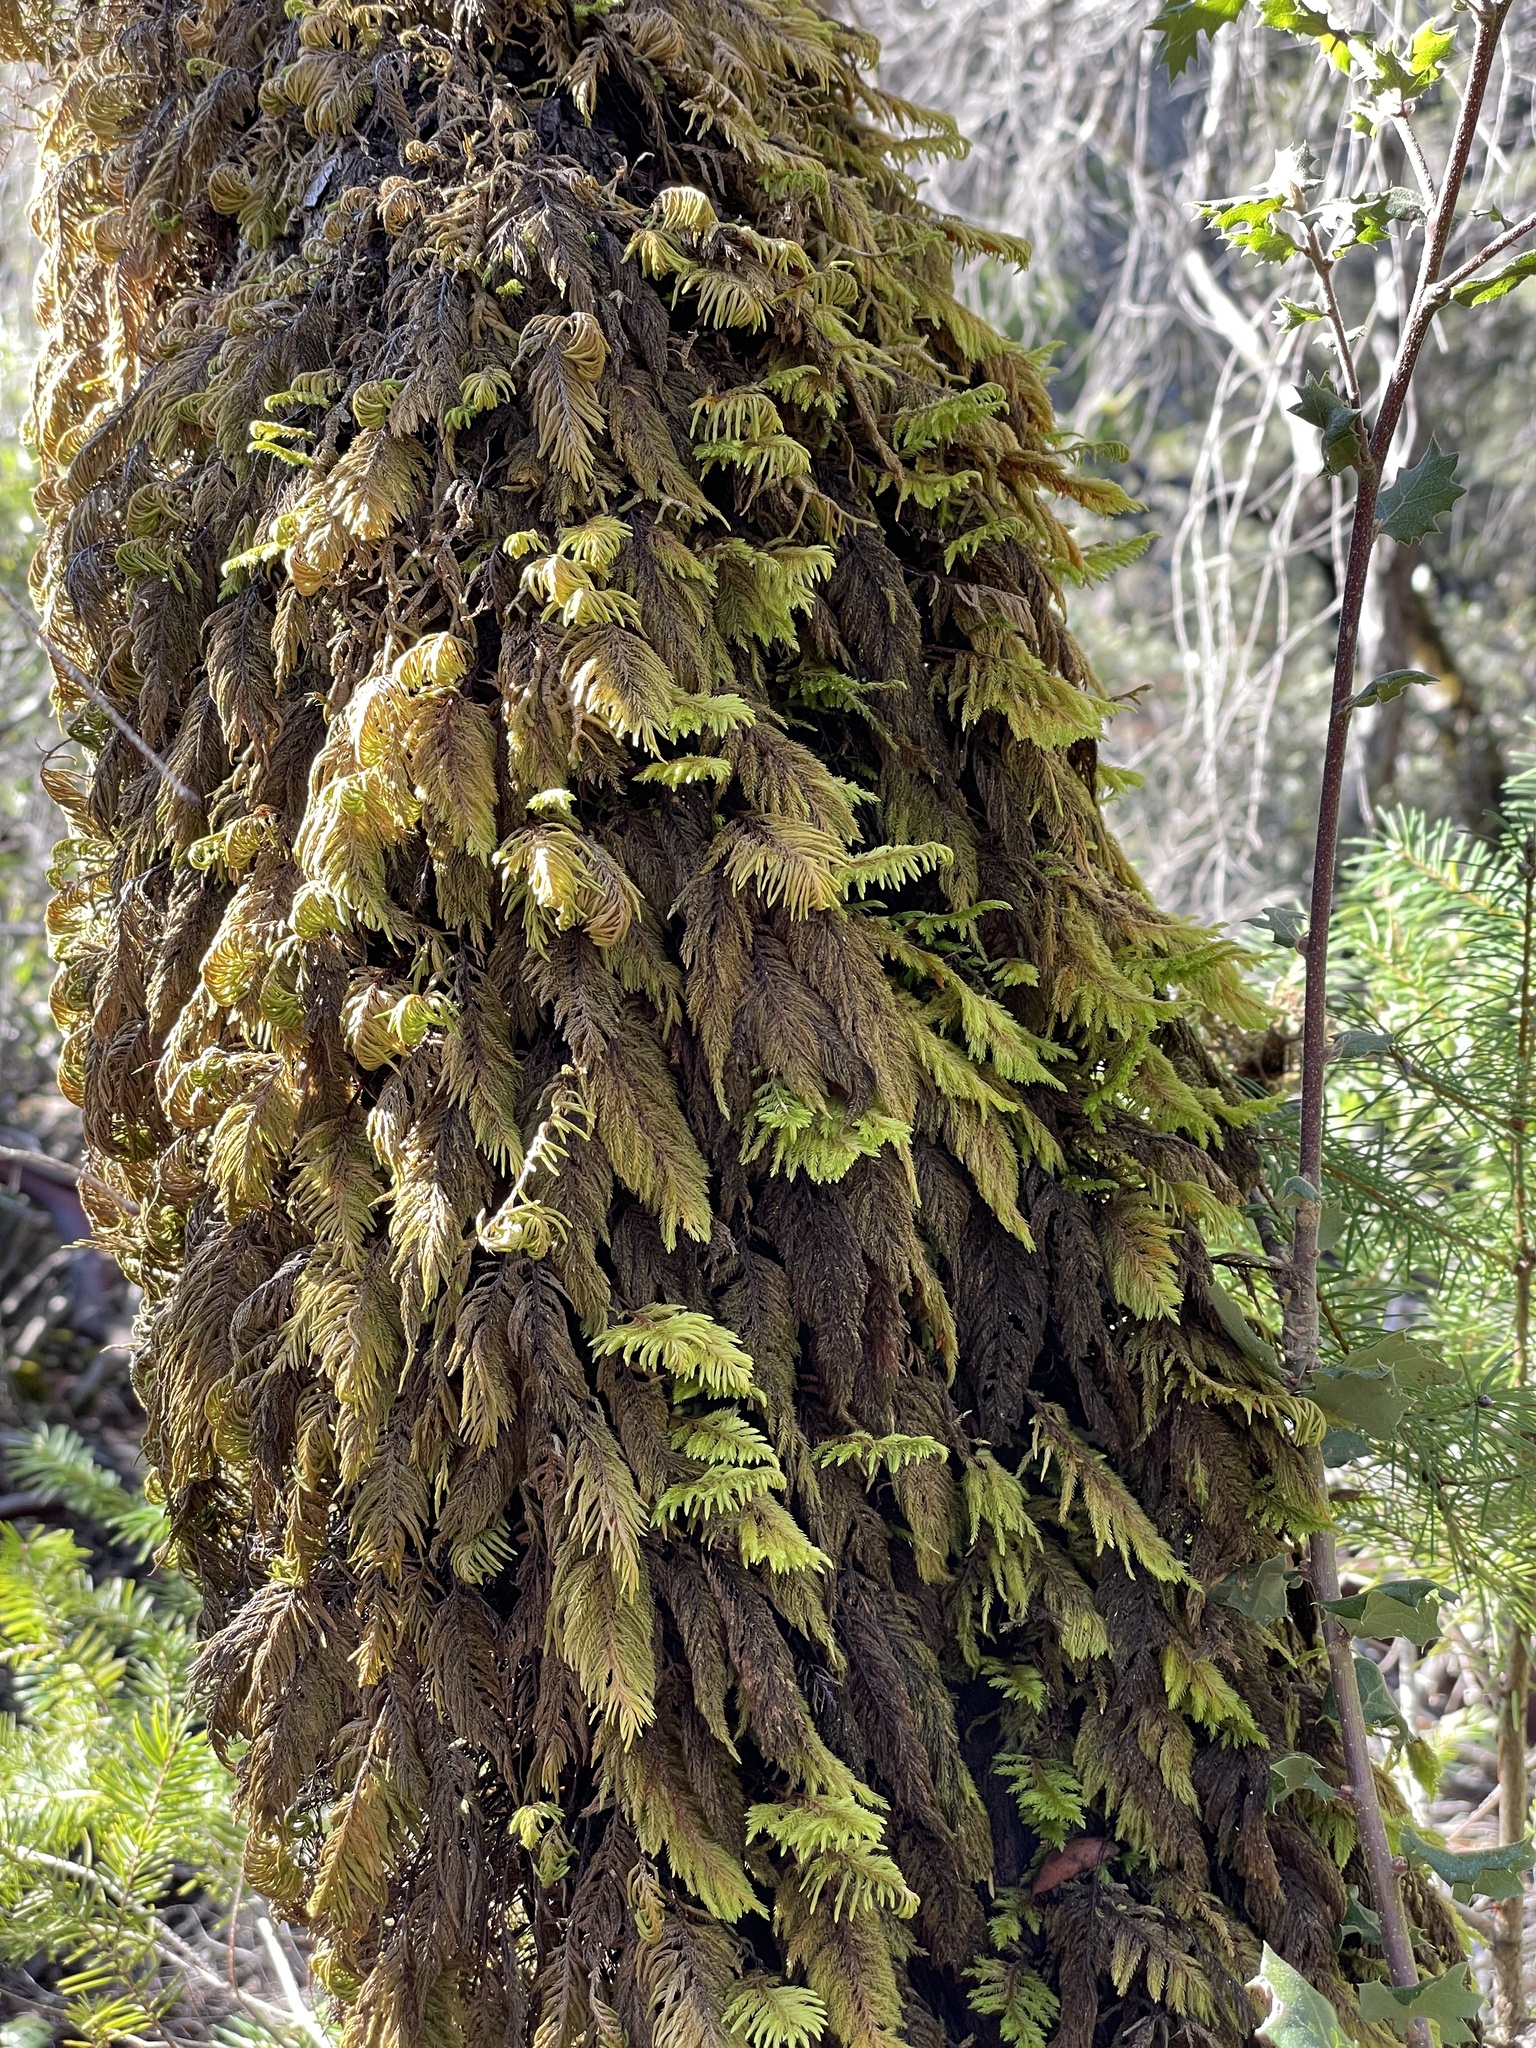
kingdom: Plantae
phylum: Bryophyta
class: Bryopsida
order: Hypnales
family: Cryphaeaceae
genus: Dendroalsia
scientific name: Dendroalsia abietina
